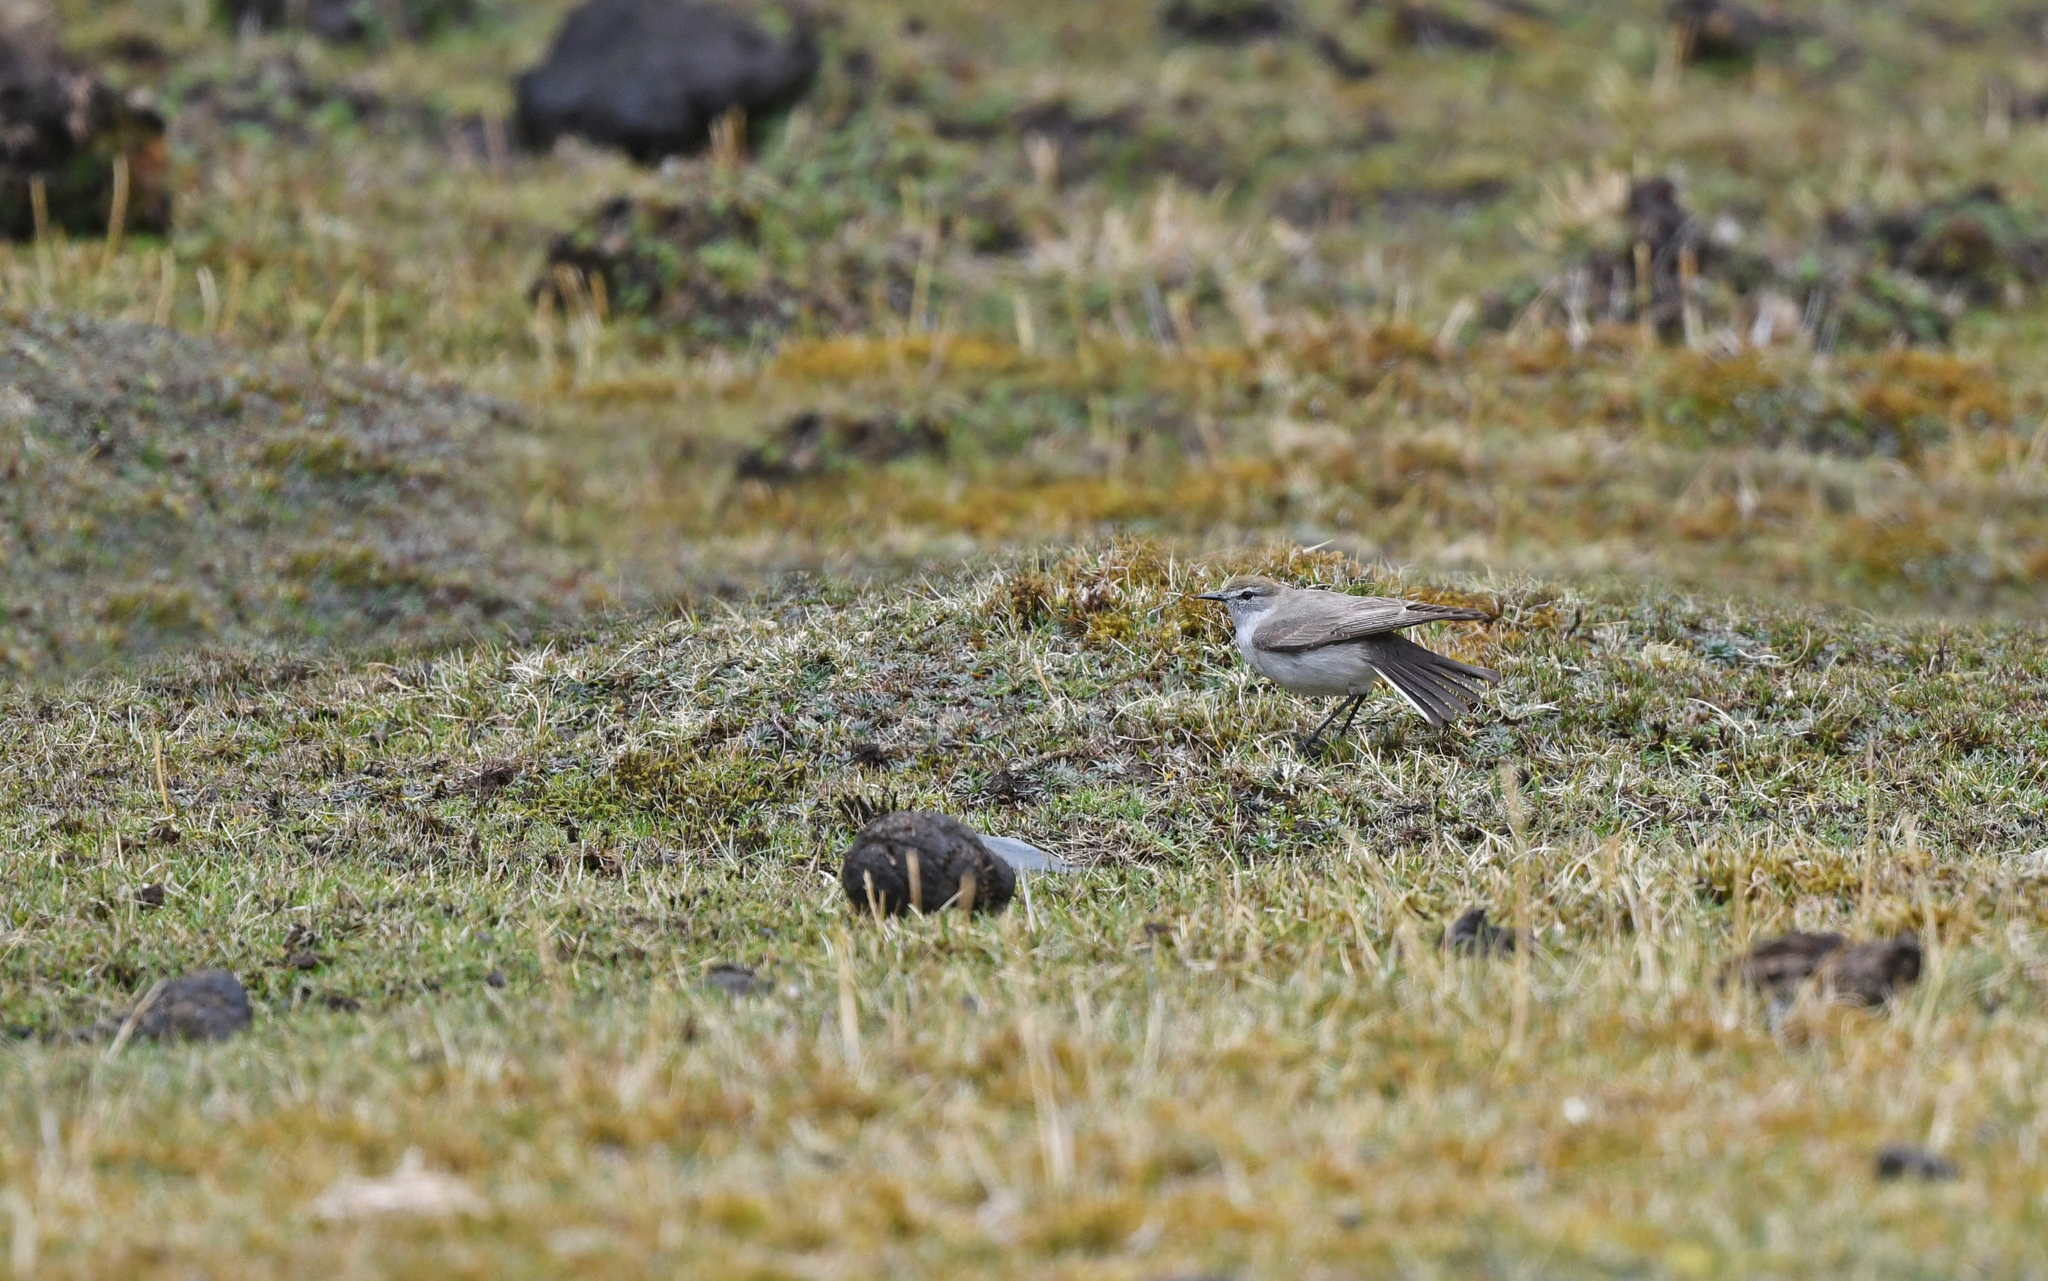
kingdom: Animalia
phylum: Chordata
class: Aves
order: Passeriformes
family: Tyrannidae
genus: Muscisaxicola
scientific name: Muscisaxicola juninensis
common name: Puna ground tyrant
